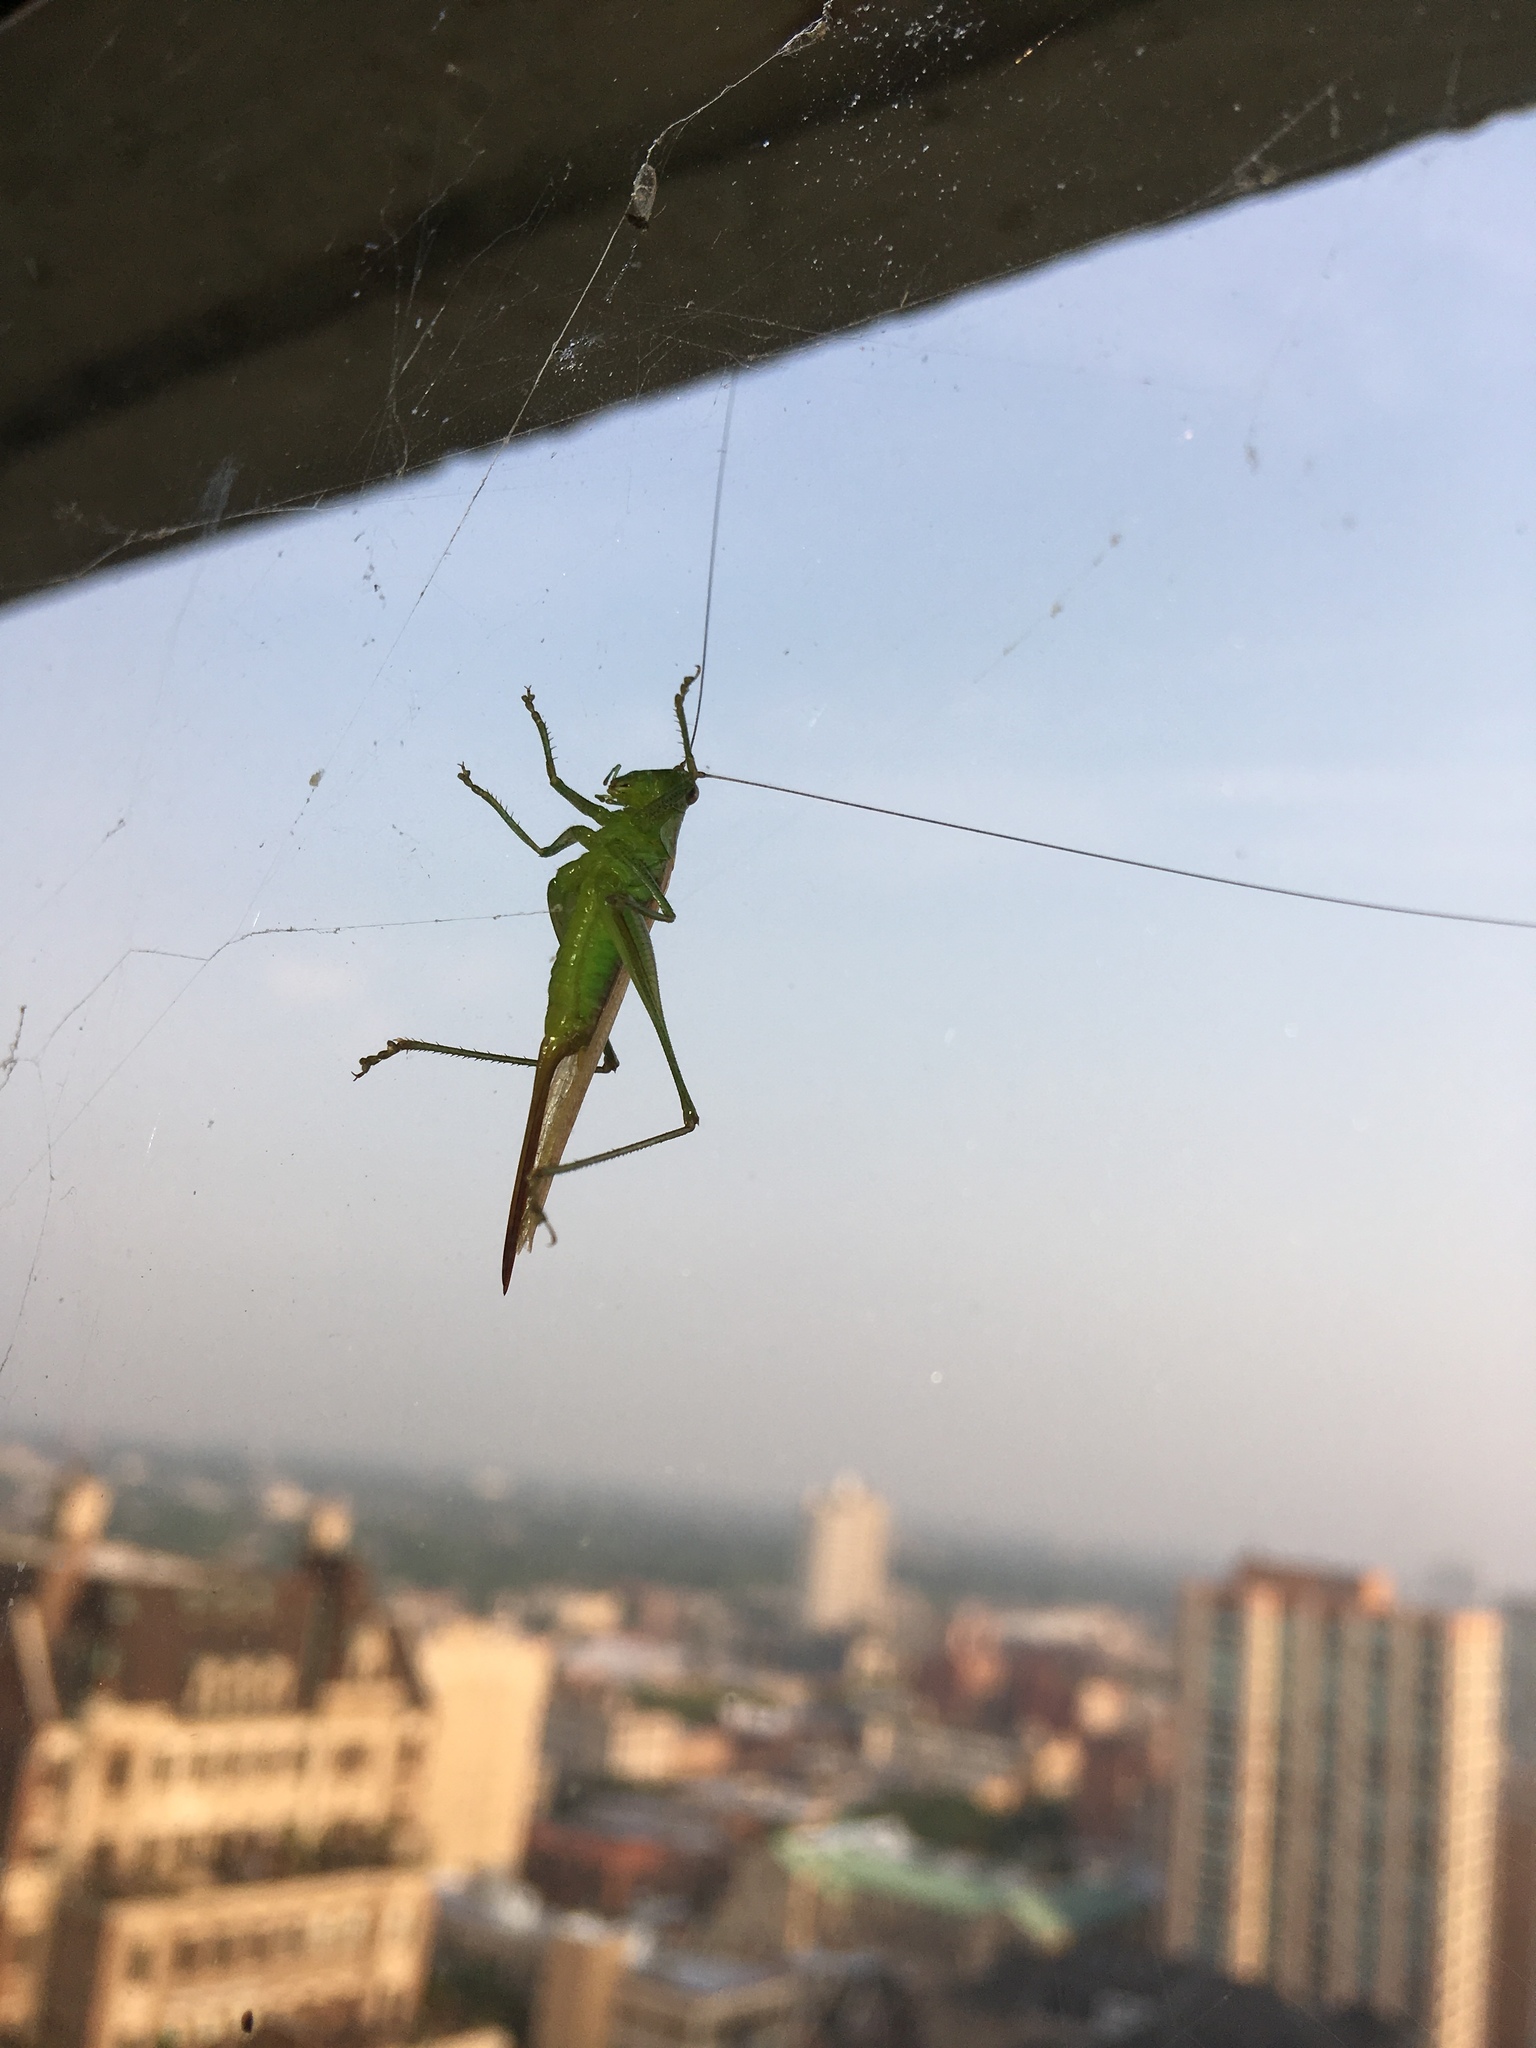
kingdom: Animalia
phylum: Arthropoda
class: Insecta
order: Orthoptera
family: Tettigoniidae
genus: Conocephalus
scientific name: Conocephalus brevipennis
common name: Short-winged meadow katydid
